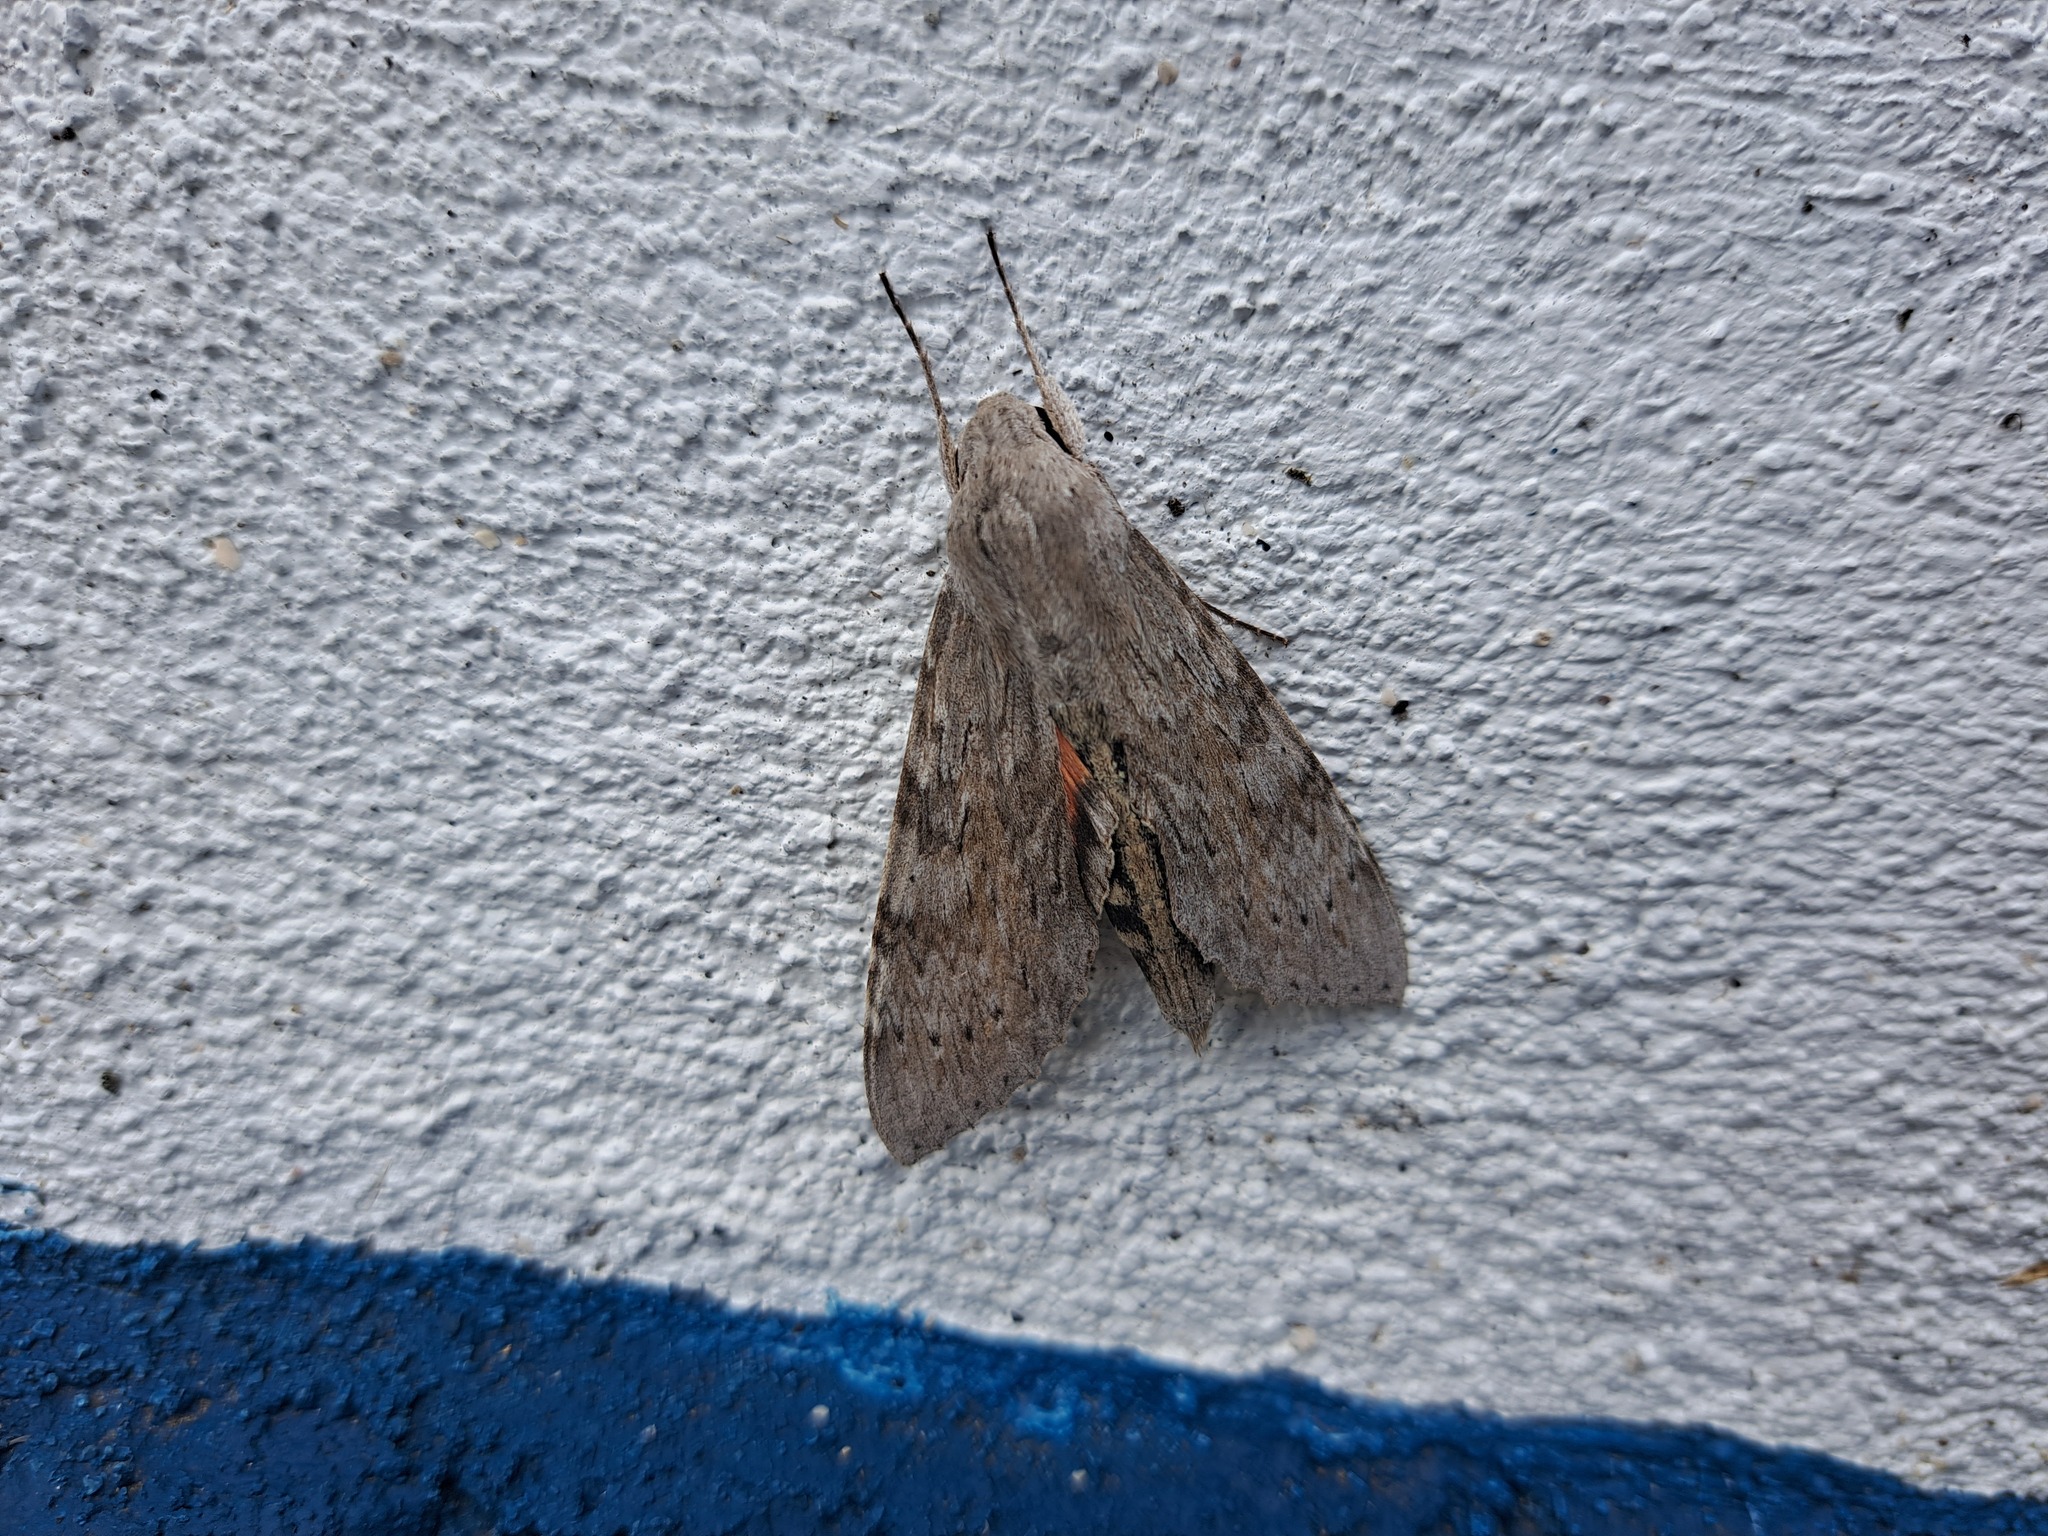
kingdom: Animalia
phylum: Arthropoda
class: Insecta
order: Lepidoptera
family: Sphingidae
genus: Erinnyis
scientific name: Erinnyis ello
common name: Ello sphinx
